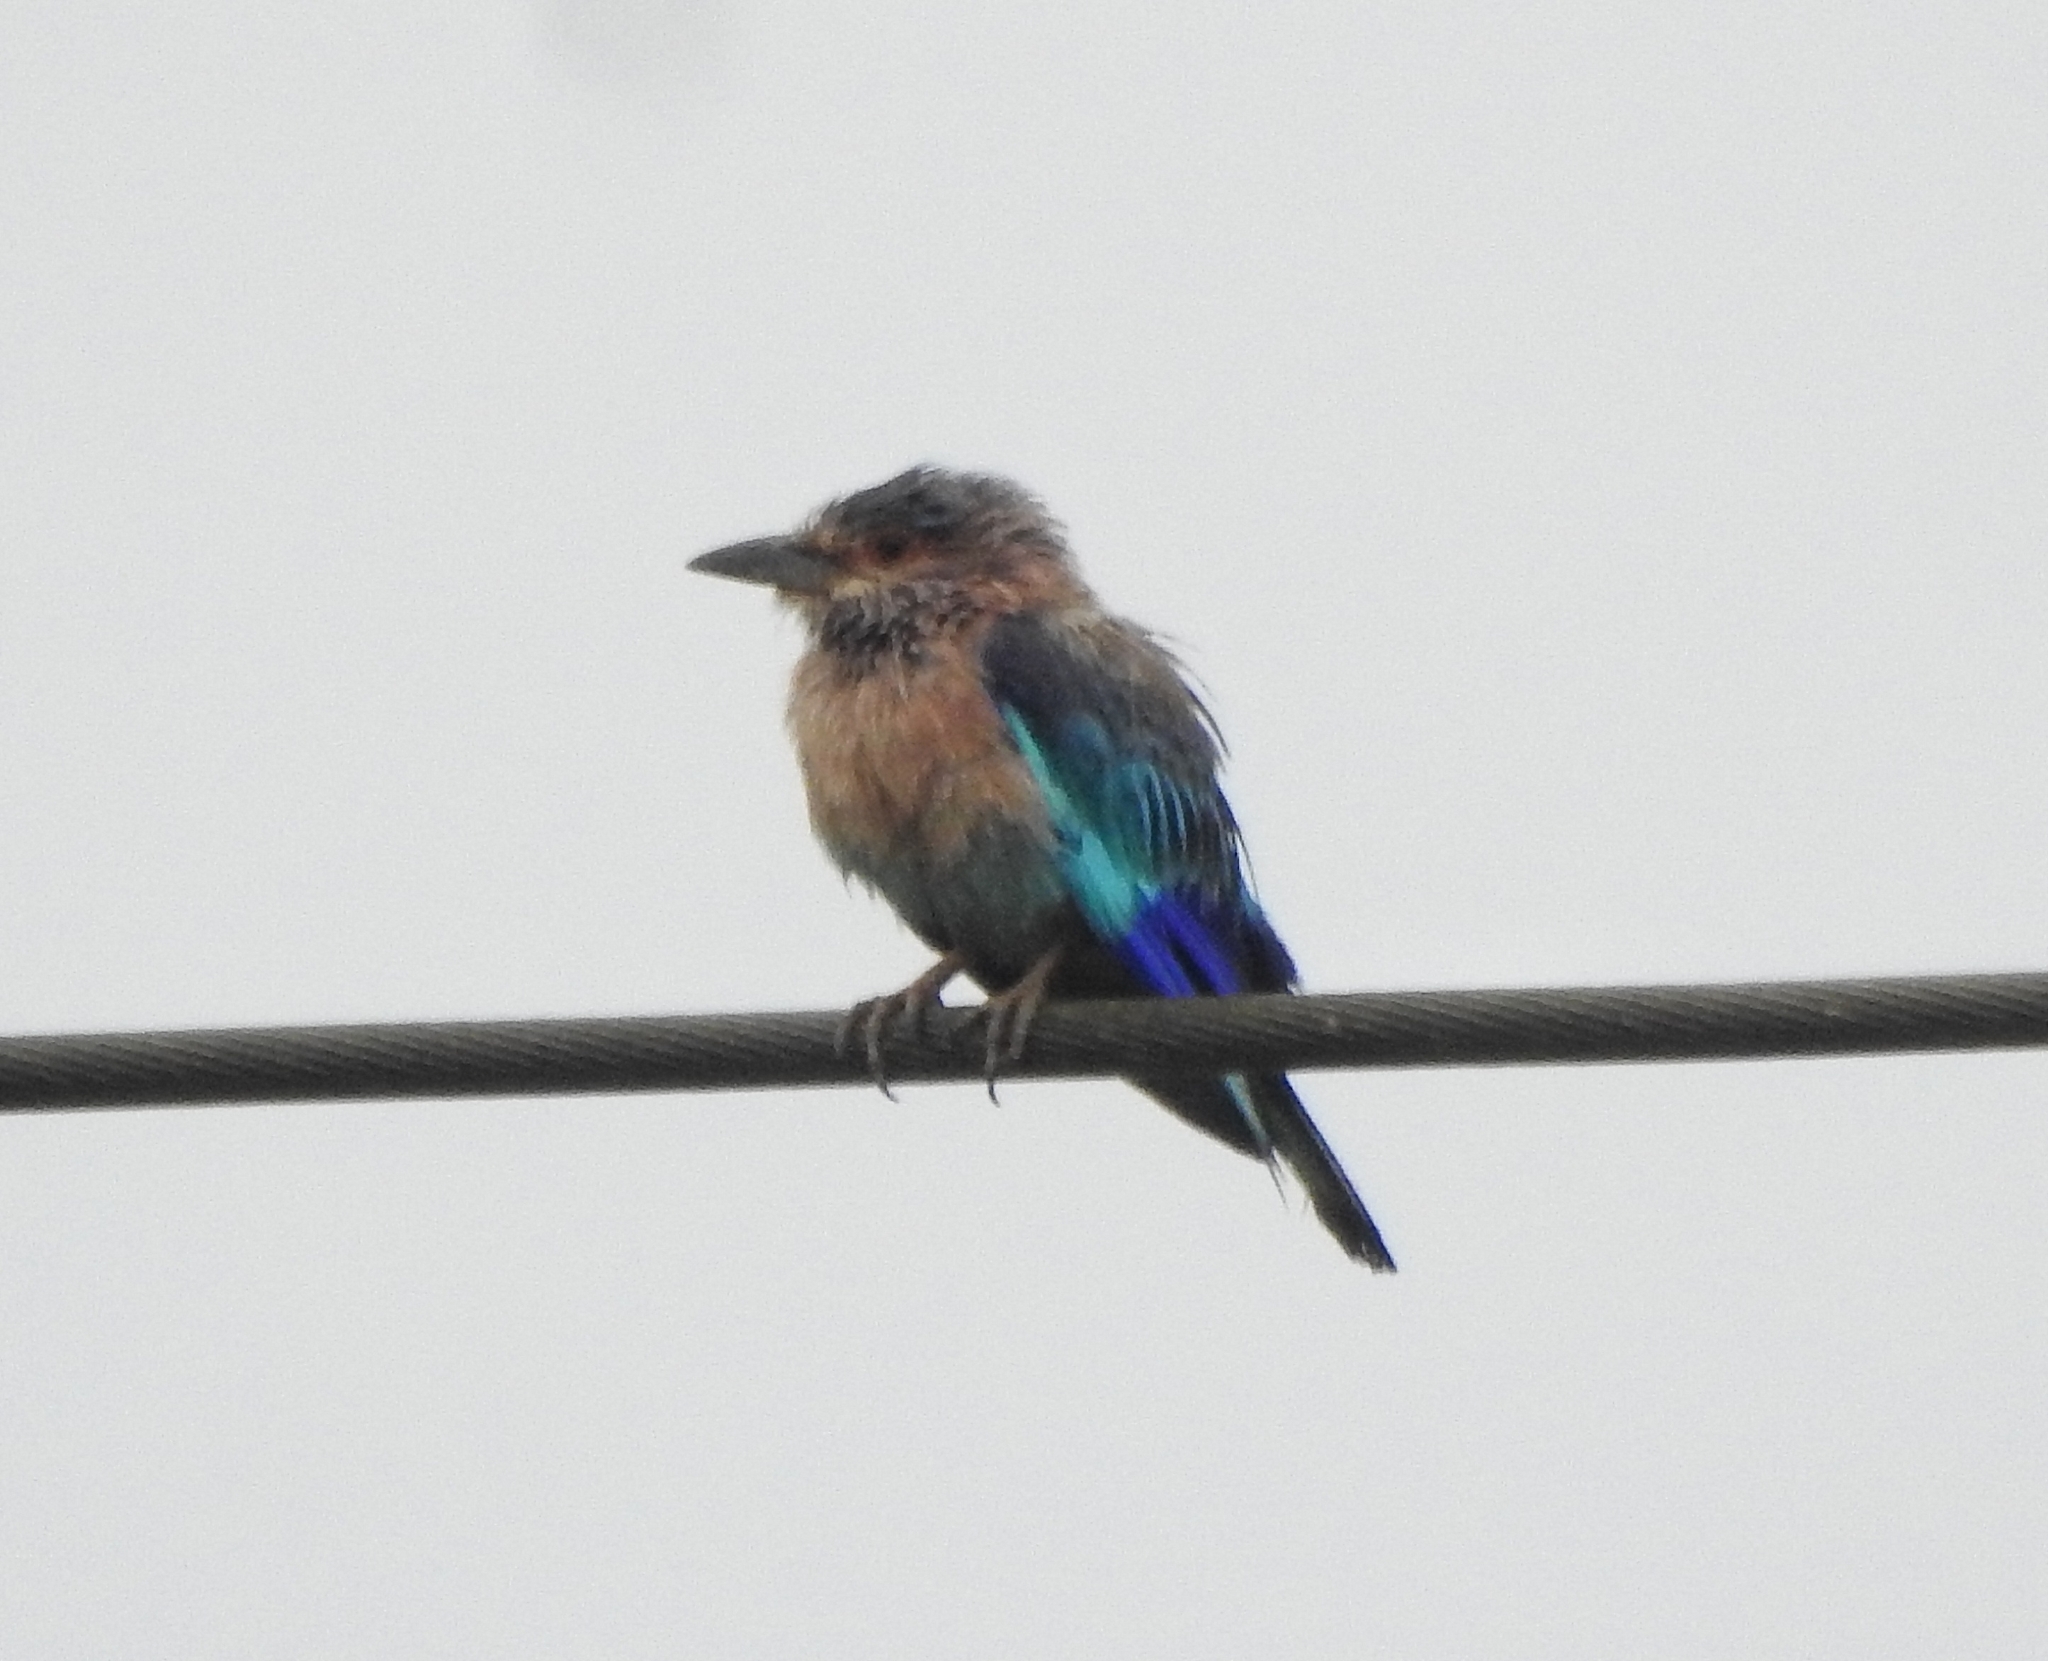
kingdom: Animalia
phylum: Chordata
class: Aves
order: Coraciiformes
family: Coraciidae
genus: Coracias
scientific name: Coracias benghalensis
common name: Indian roller
